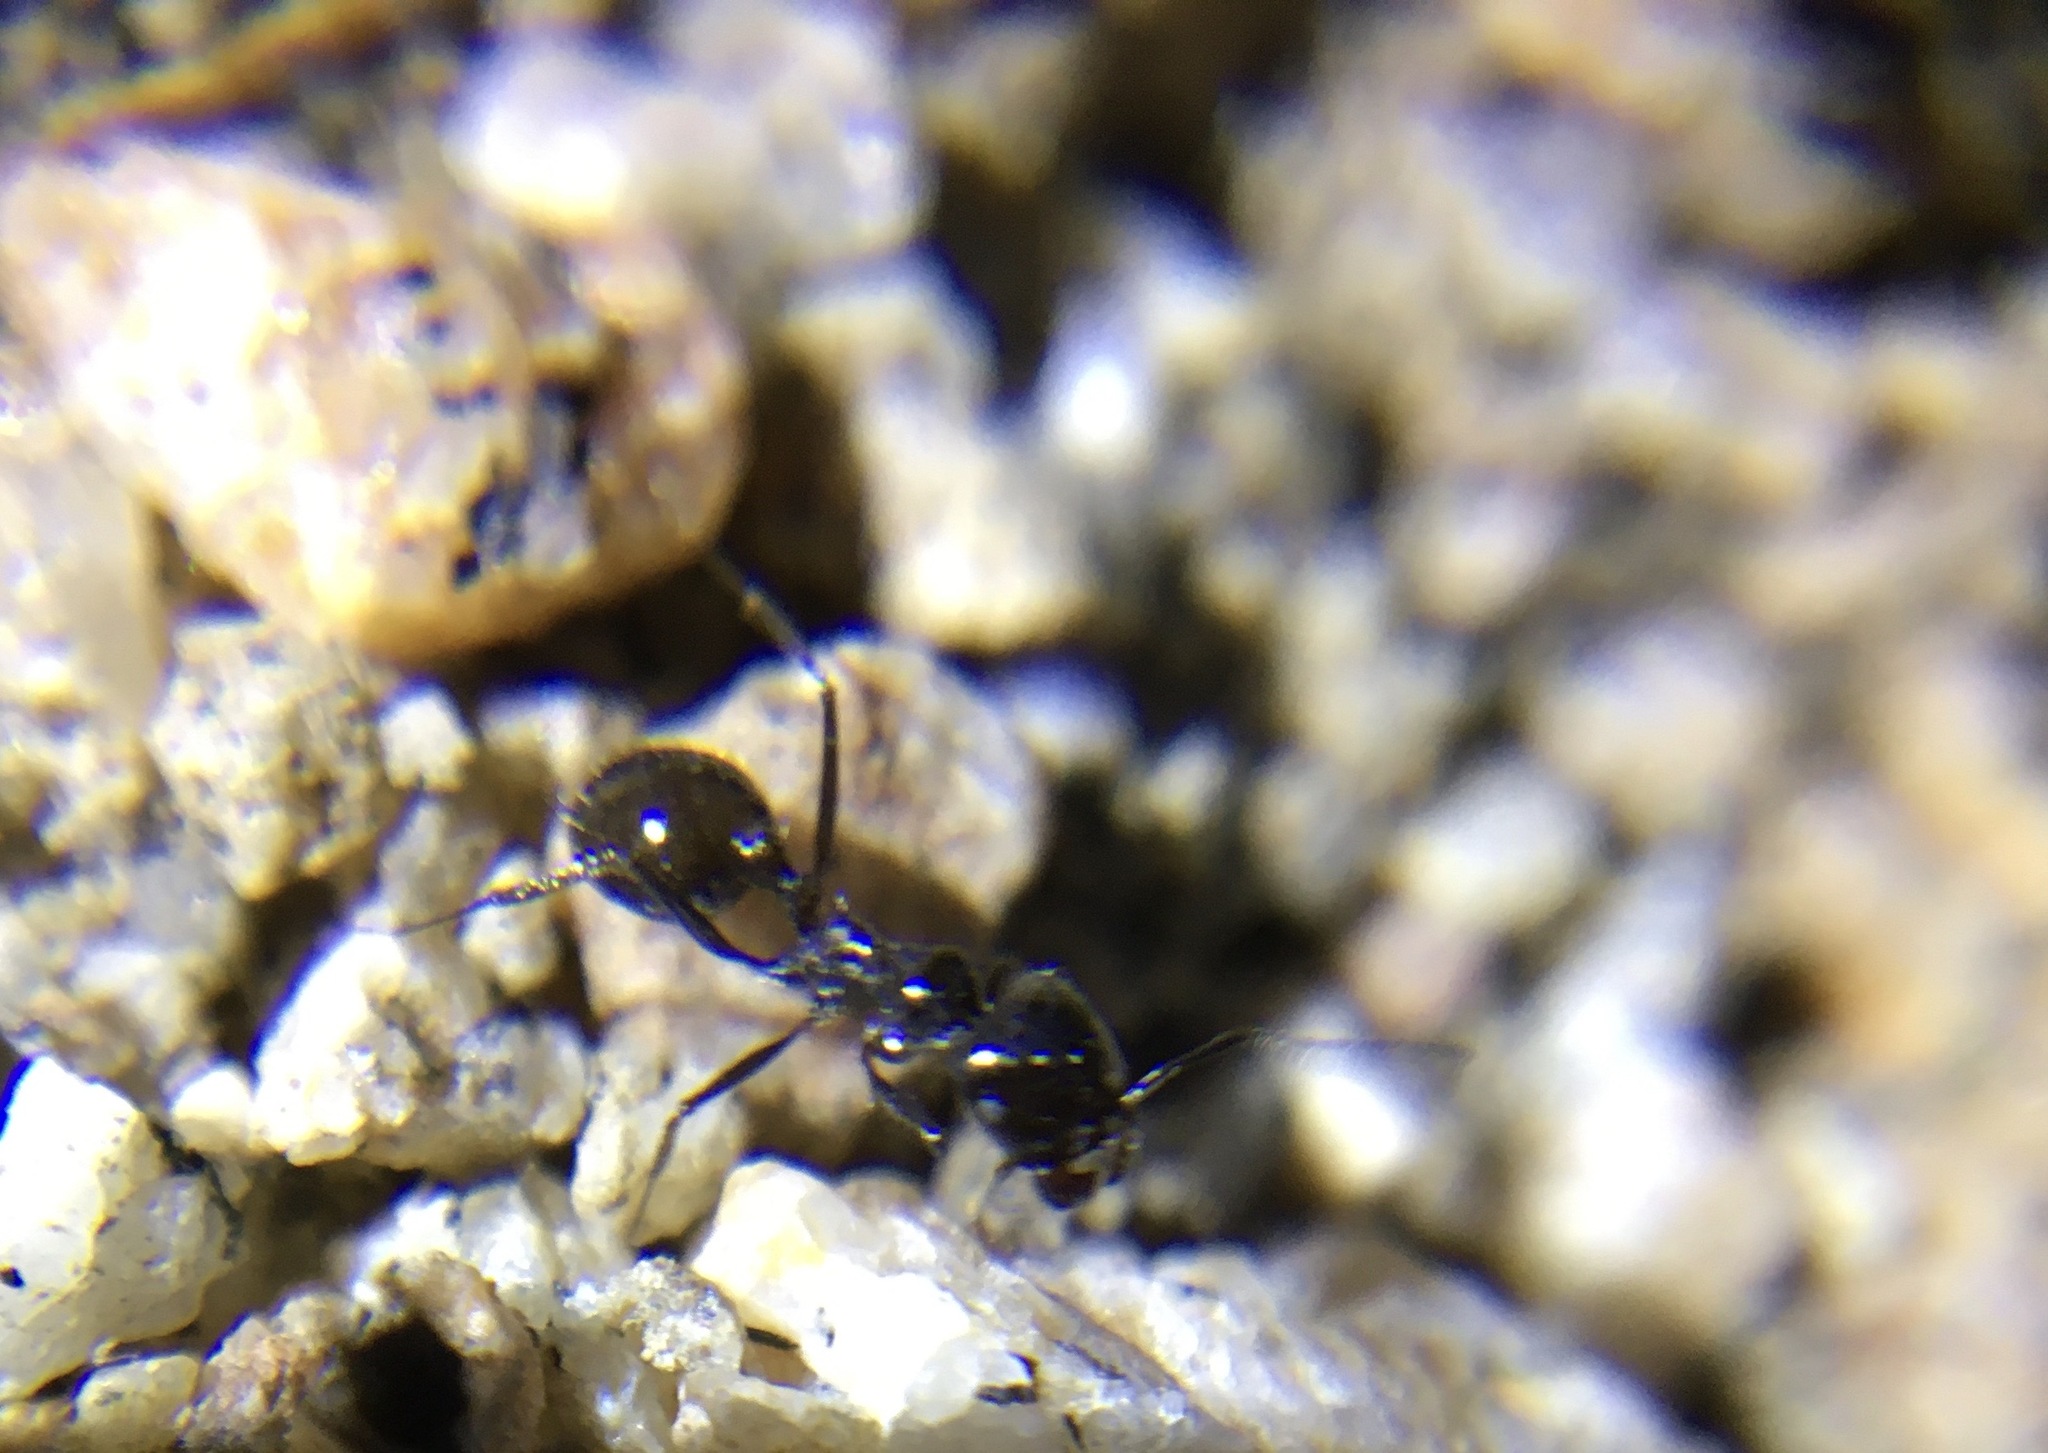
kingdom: Animalia
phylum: Arthropoda
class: Insecta
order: Hymenoptera
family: Formicidae
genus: Messor
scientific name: Messor pergandei
